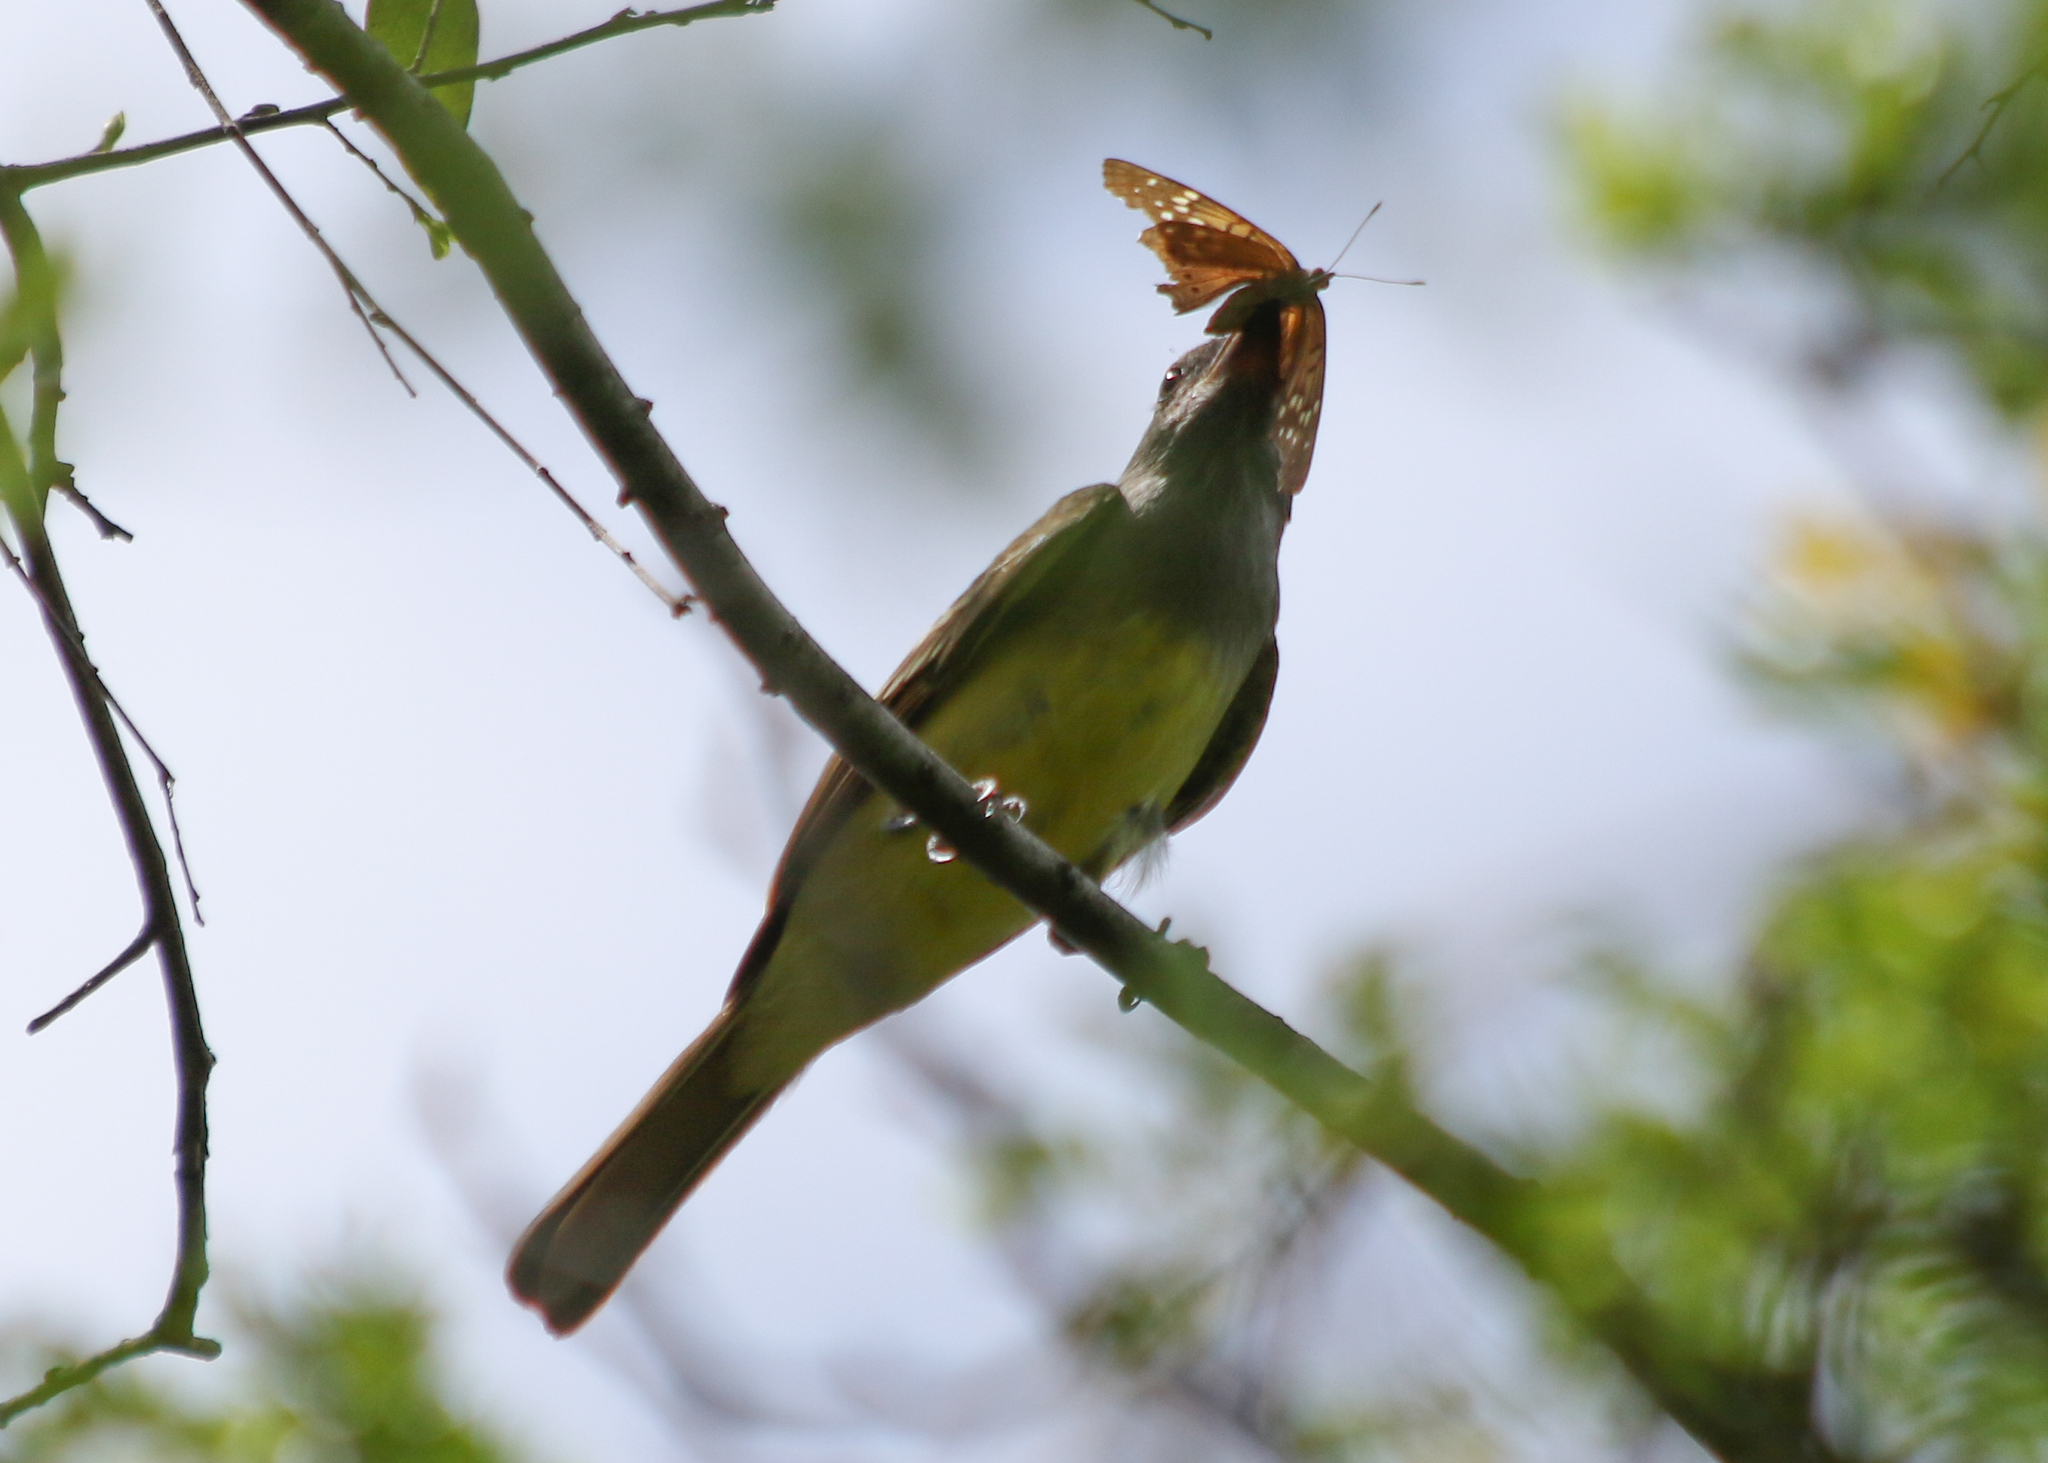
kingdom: Animalia
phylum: Chordata
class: Aves
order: Passeriformes
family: Tyrannidae
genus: Myiarchus
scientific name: Myiarchus crinitus
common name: Great crested flycatcher
